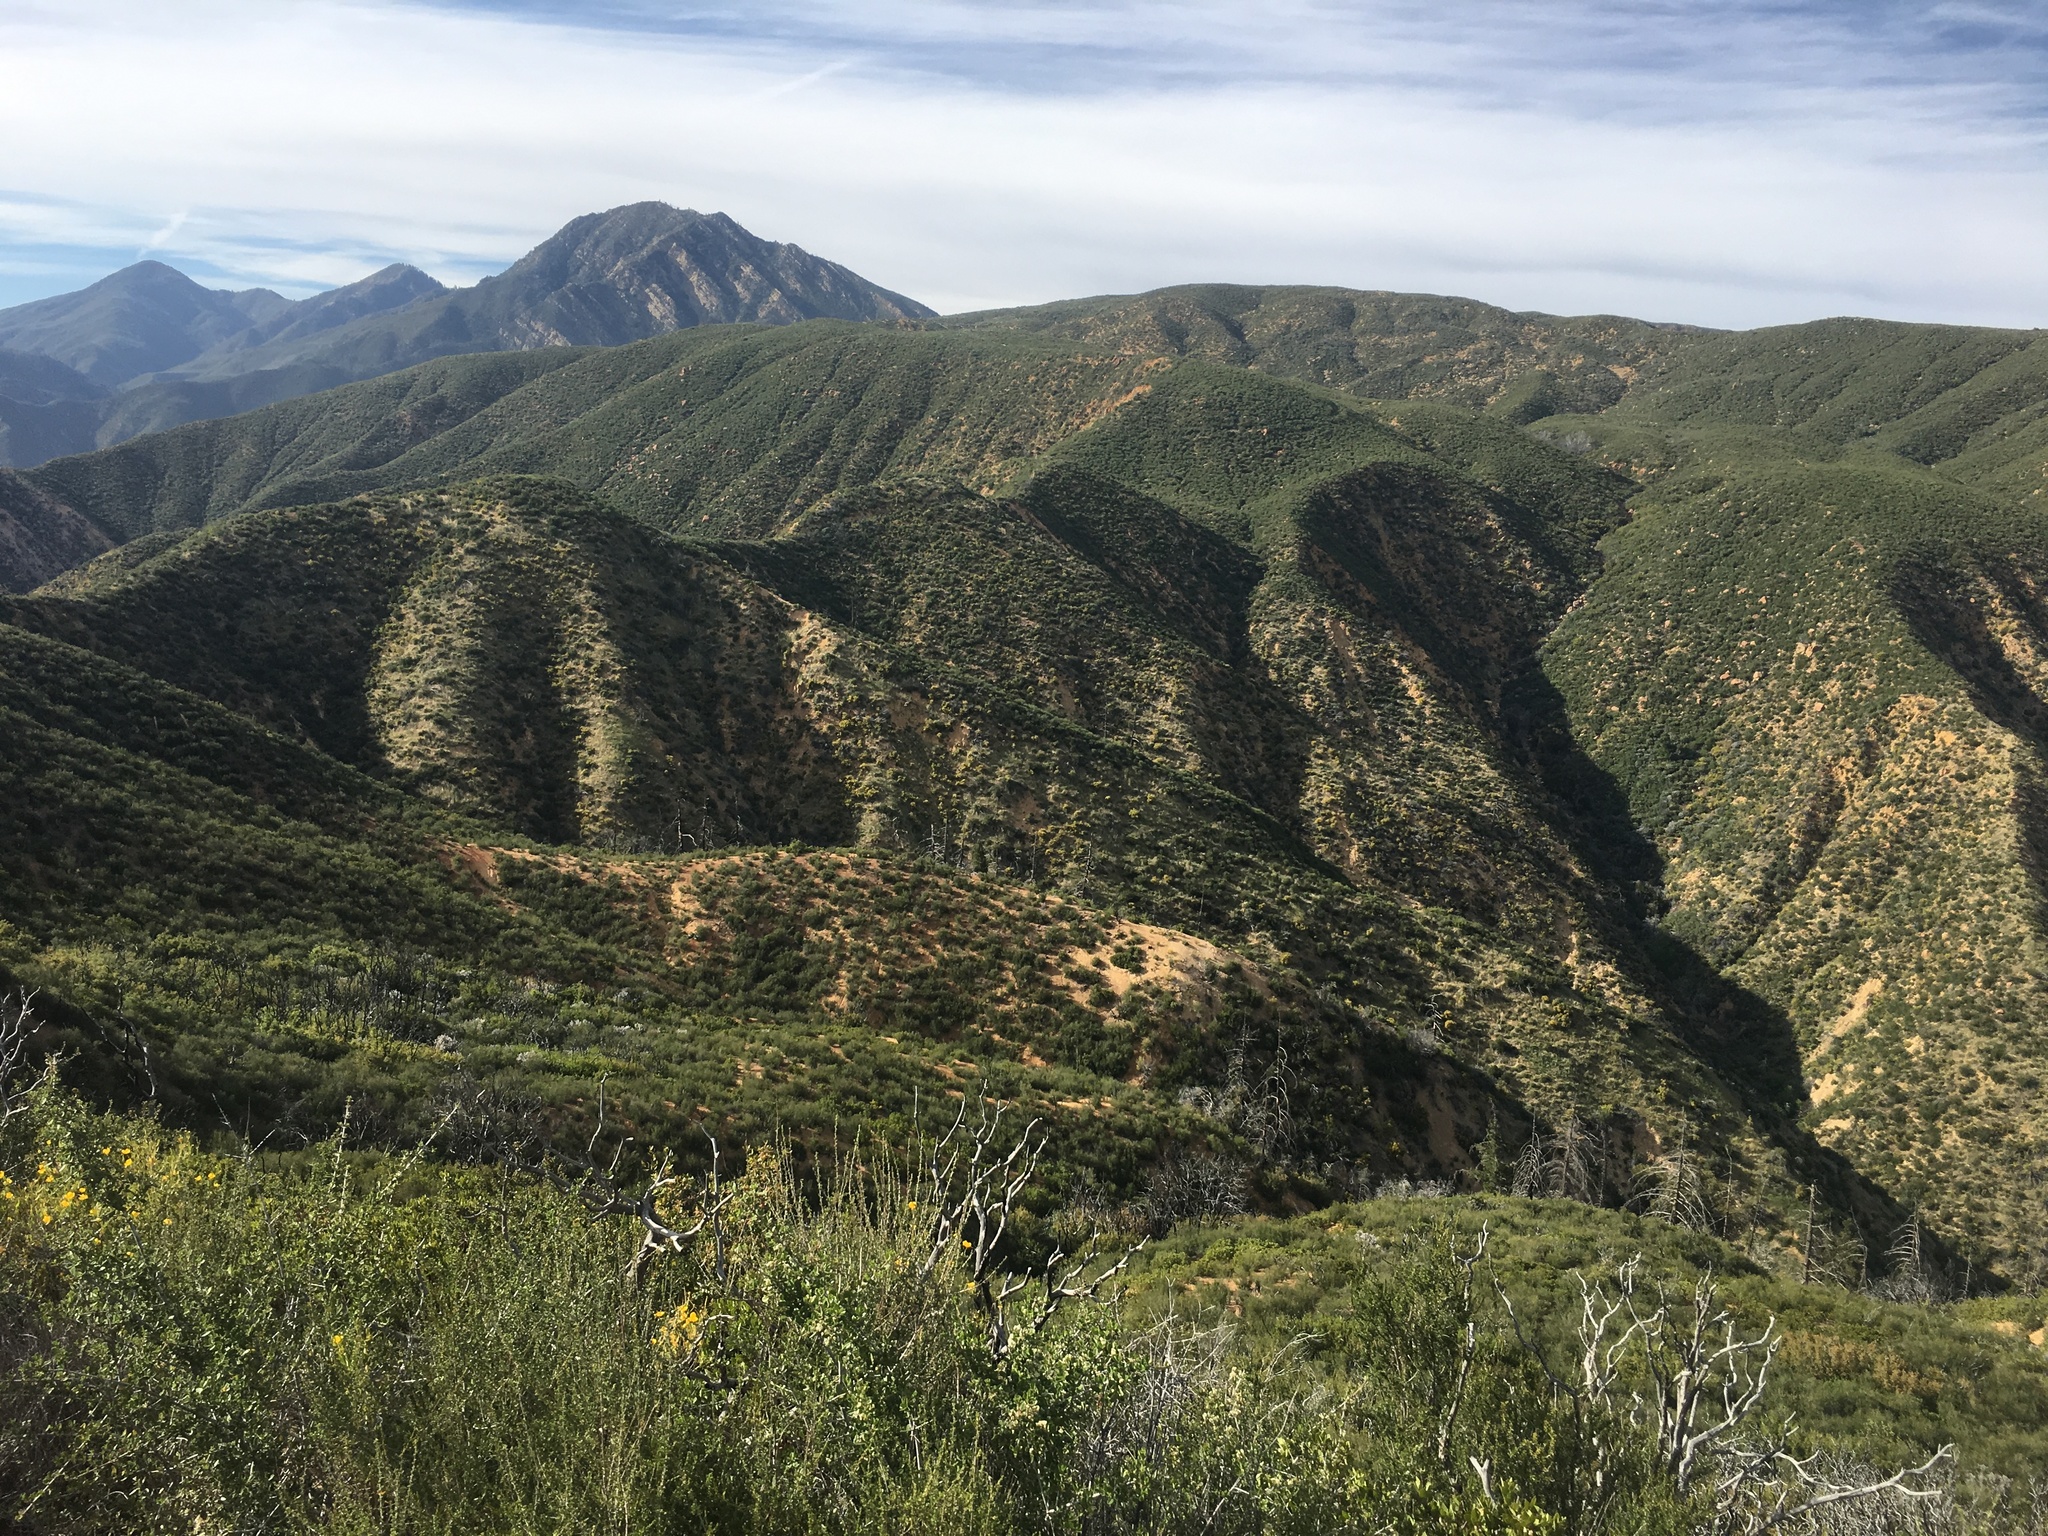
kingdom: Plantae
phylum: Tracheophyta
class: Magnoliopsida
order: Rosales
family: Rosaceae
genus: Adenostoma
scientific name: Adenostoma fasciculatum
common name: Chamise
